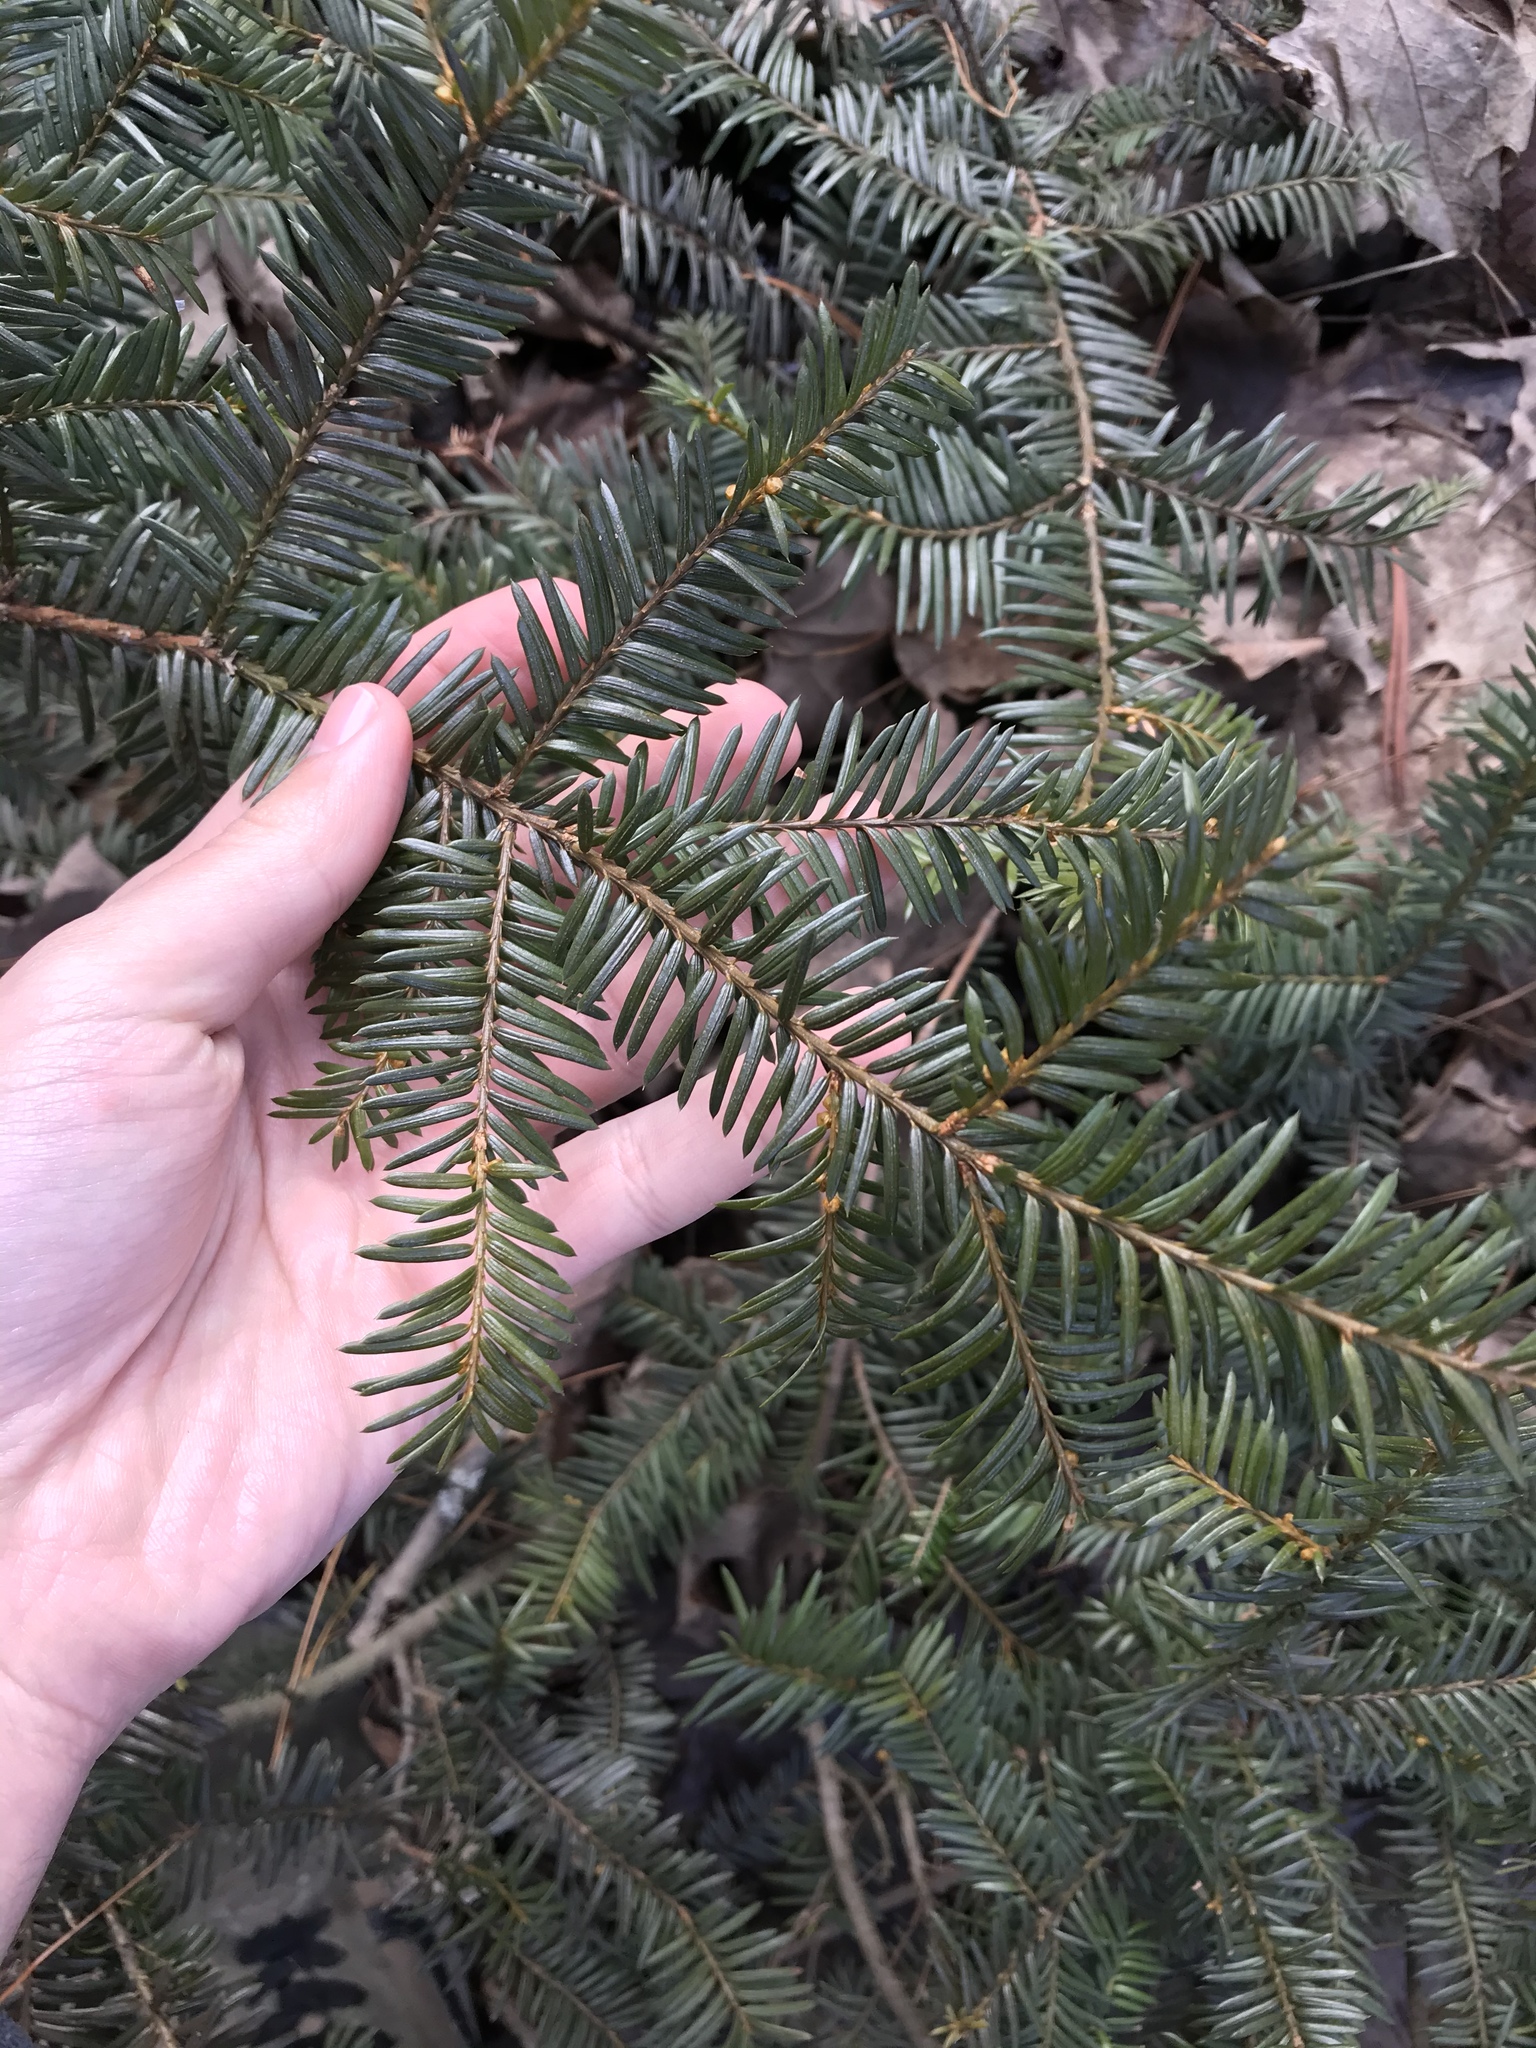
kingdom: Plantae
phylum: Tracheophyta
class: Pinopsida
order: Pinales
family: Taxaceae
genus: Taxus
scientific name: Taxus canadensis
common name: American yew
